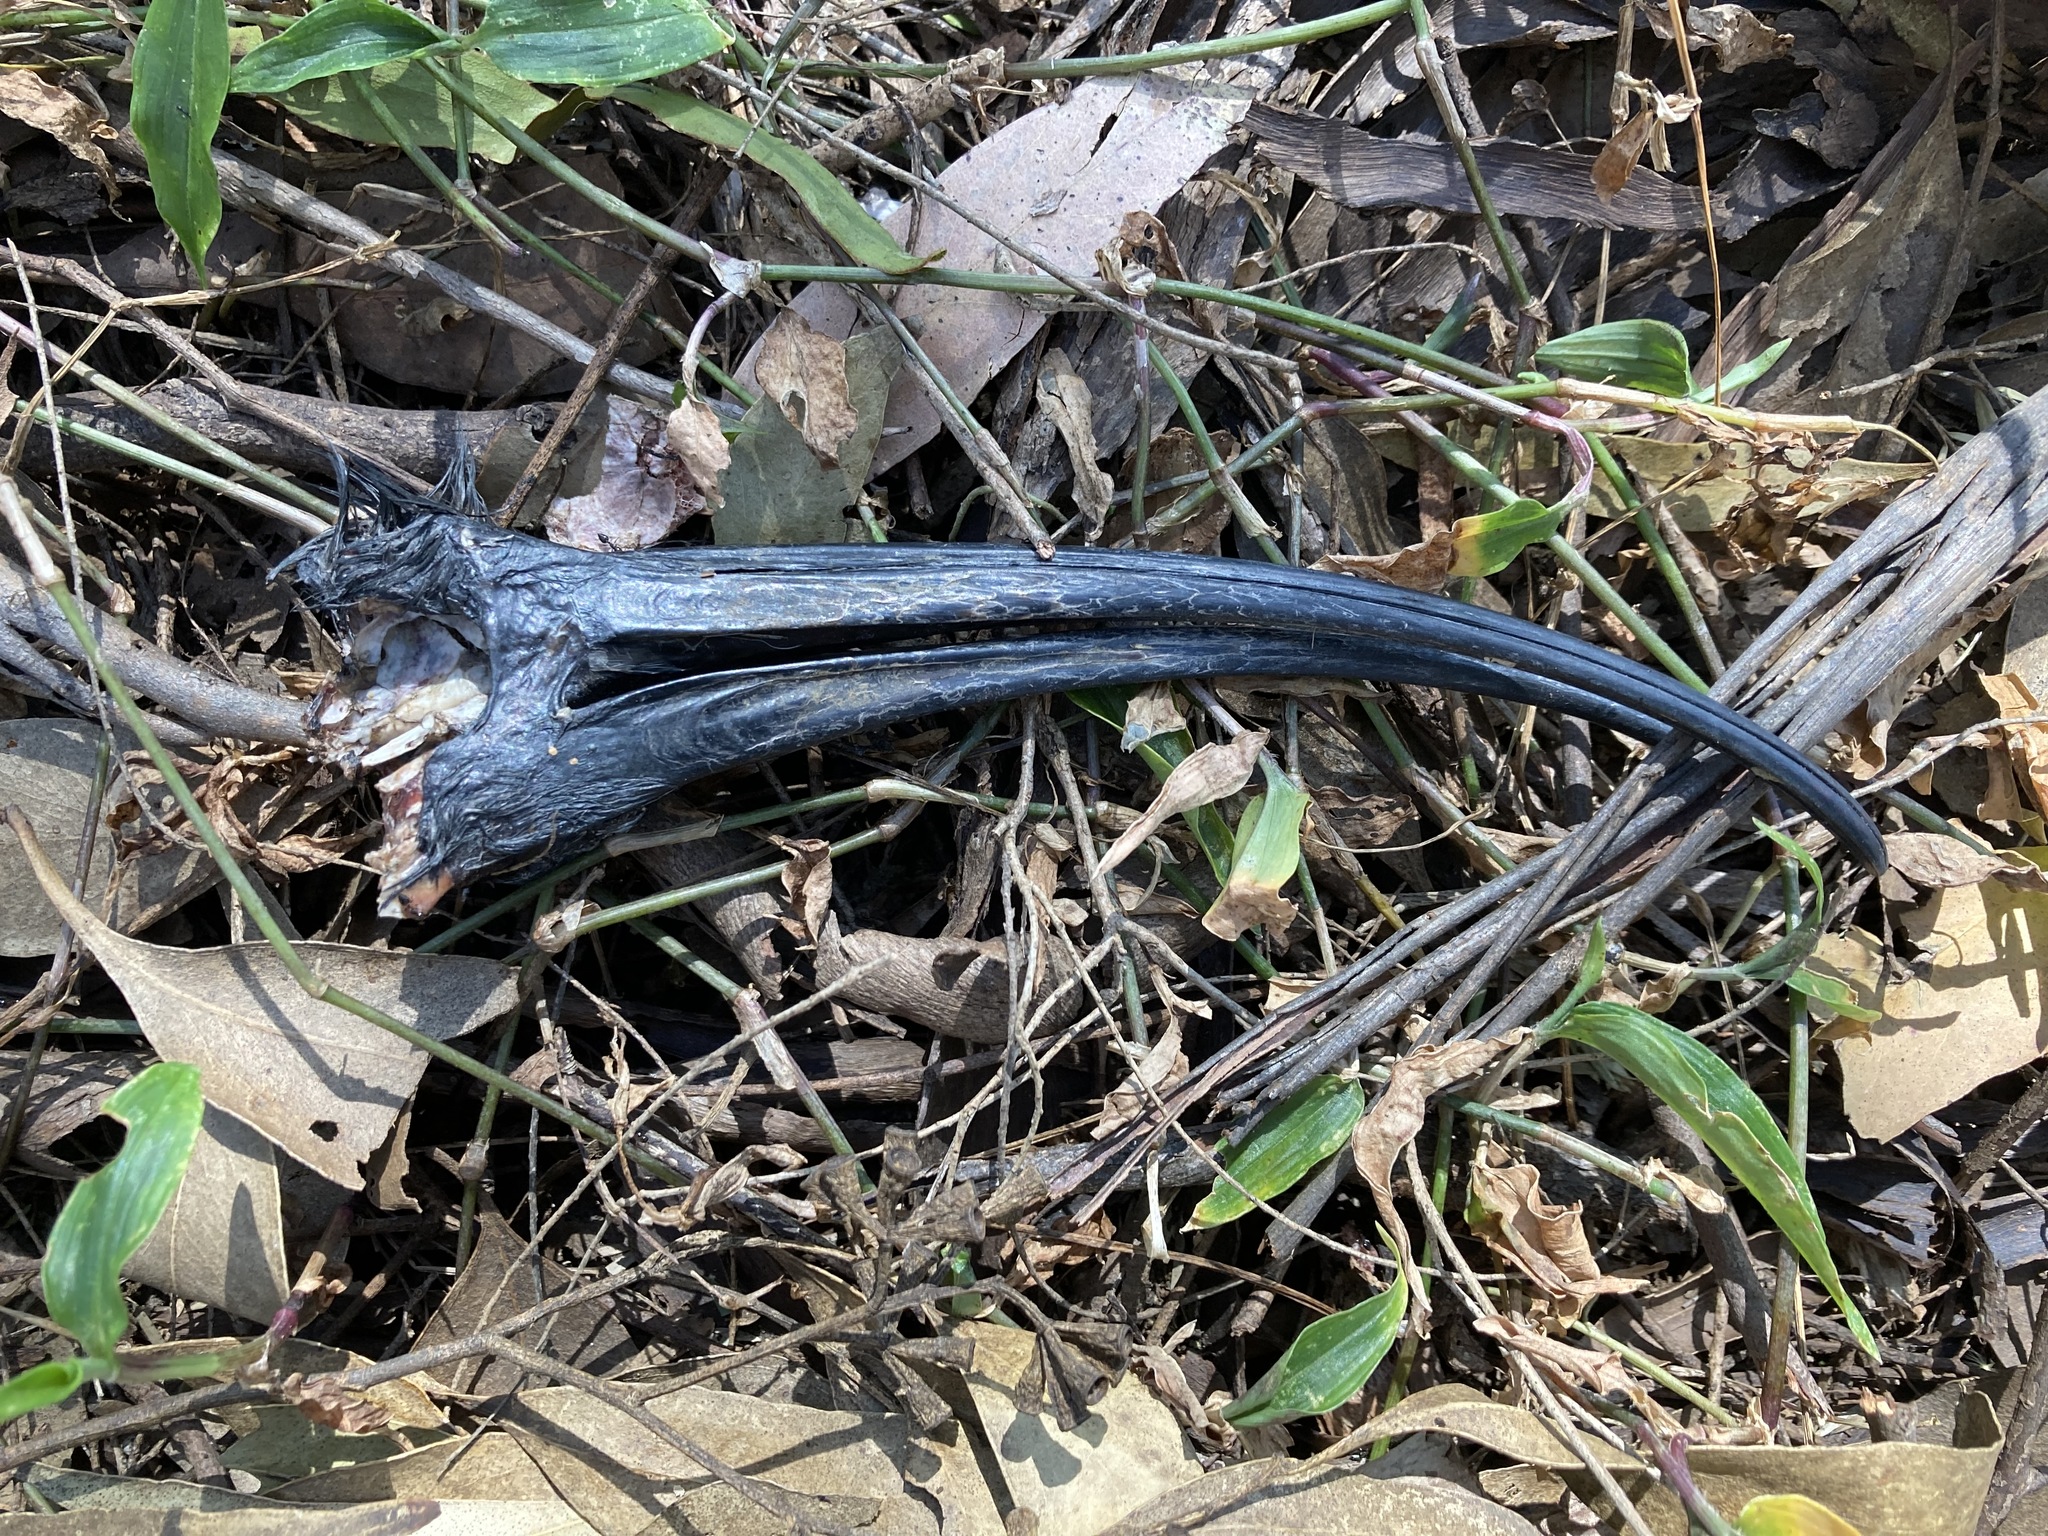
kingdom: Animalia
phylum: Chordata
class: Aves
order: Pelecaniformes
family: Threskiornithidae
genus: Threskiornis
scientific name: Threskiornis molucca
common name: Australian white ibis
